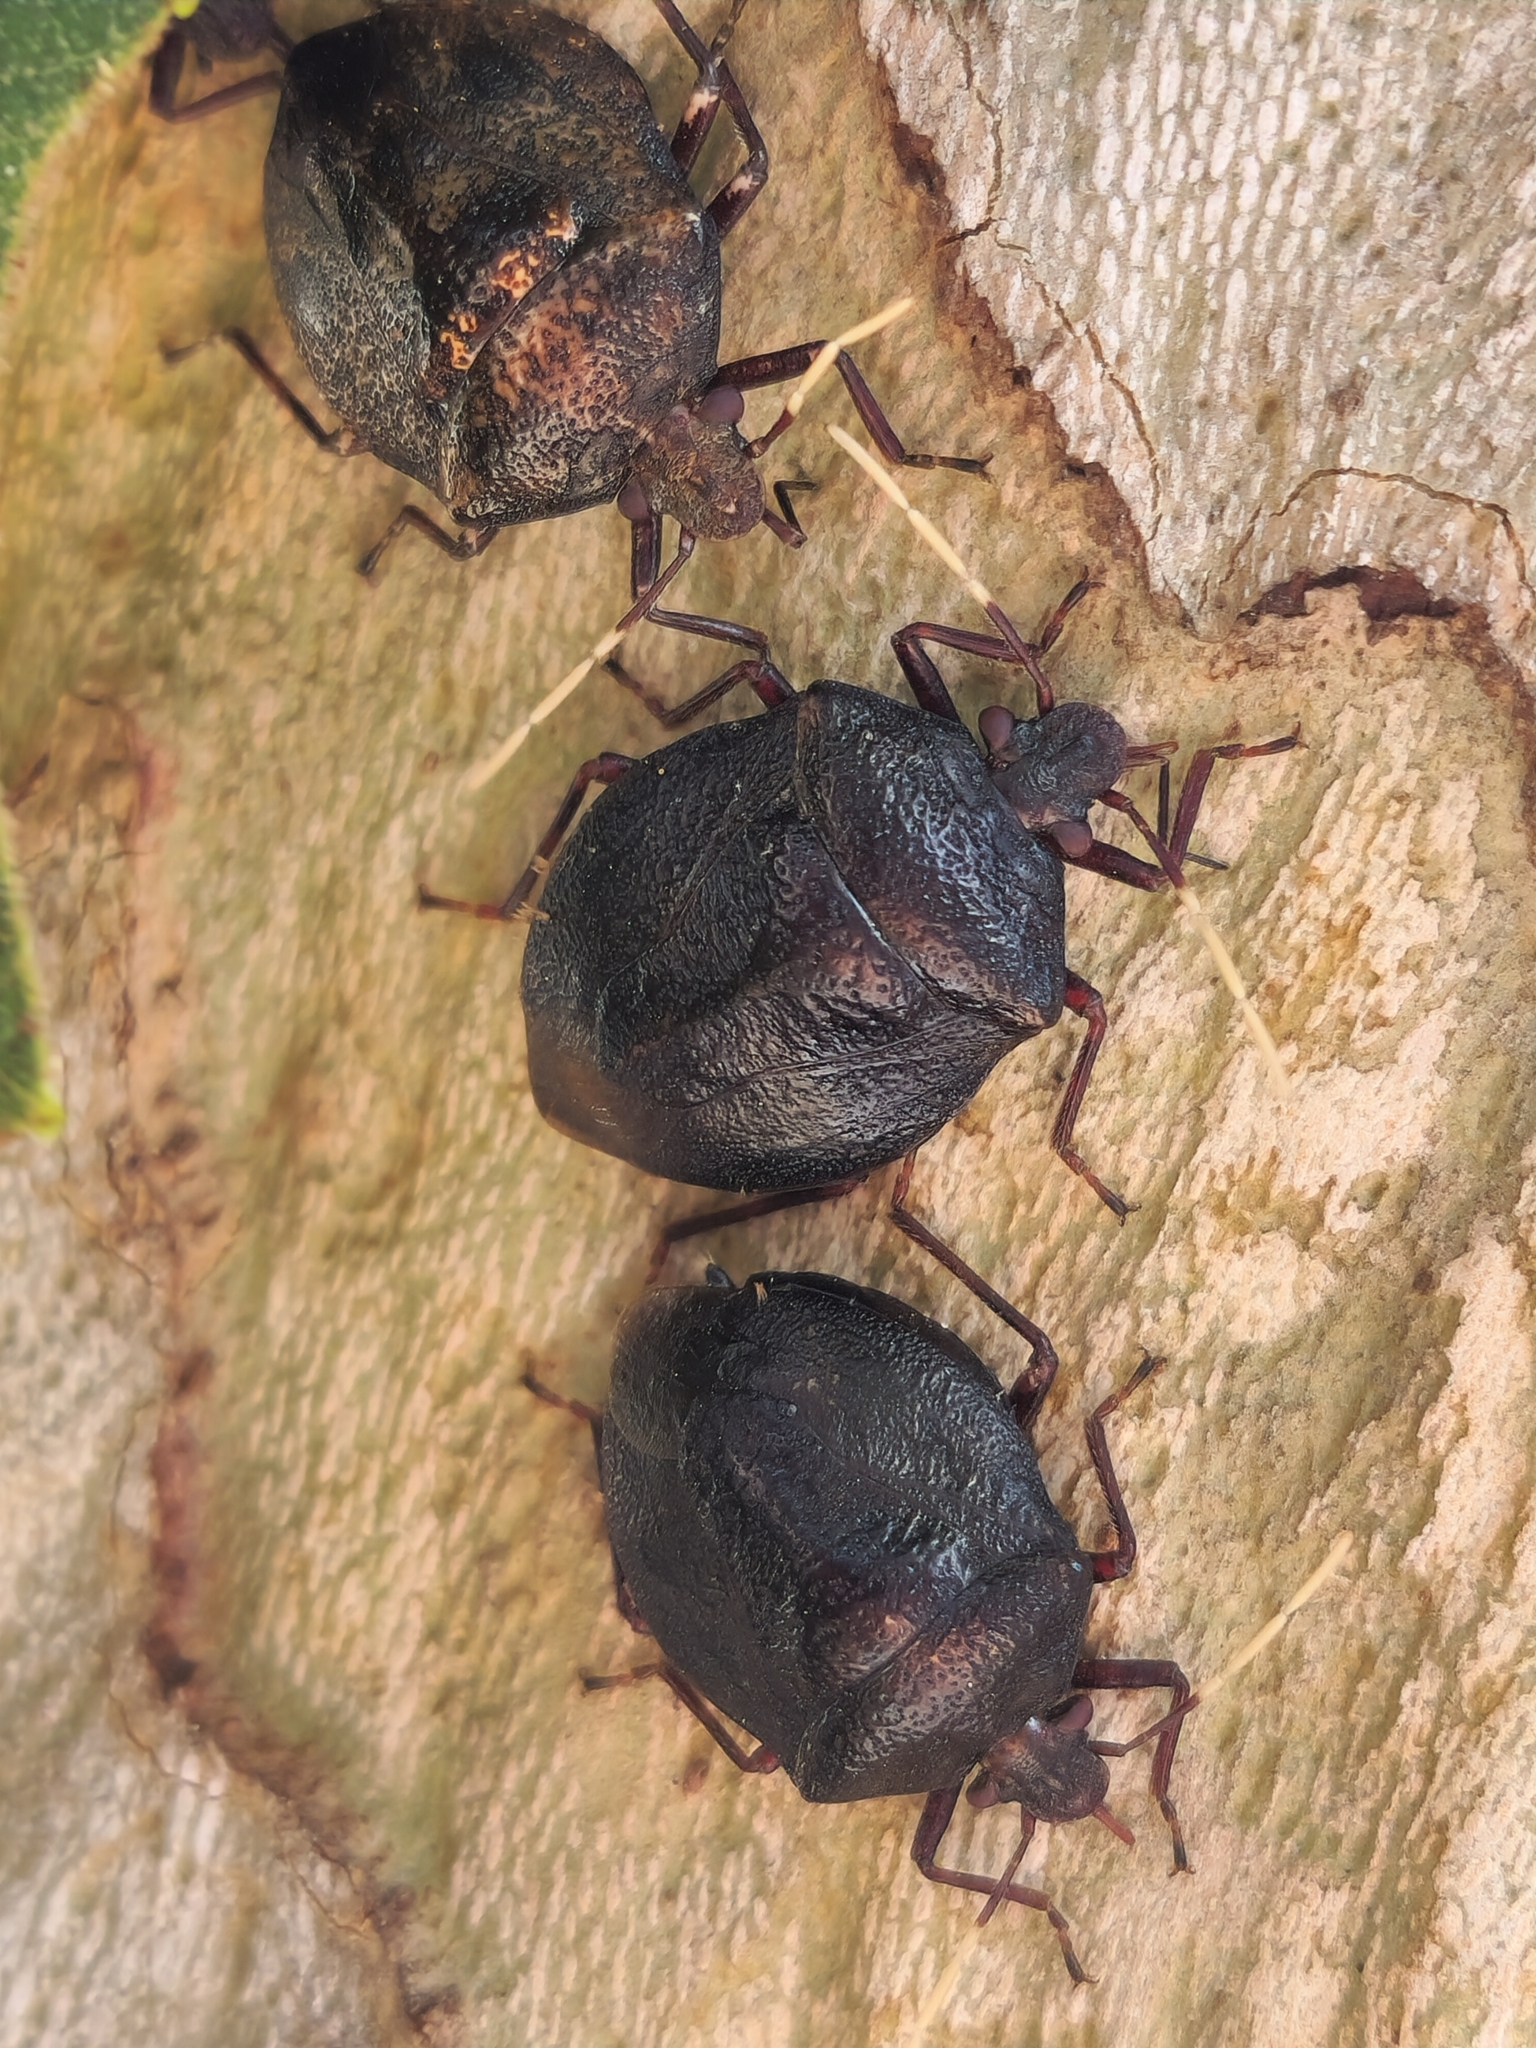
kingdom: Animalia
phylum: Arthropoda
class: Insecta
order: Hemiptera
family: Pentatomidae
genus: Antiteuchus
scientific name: Antiteuchus mixtus
